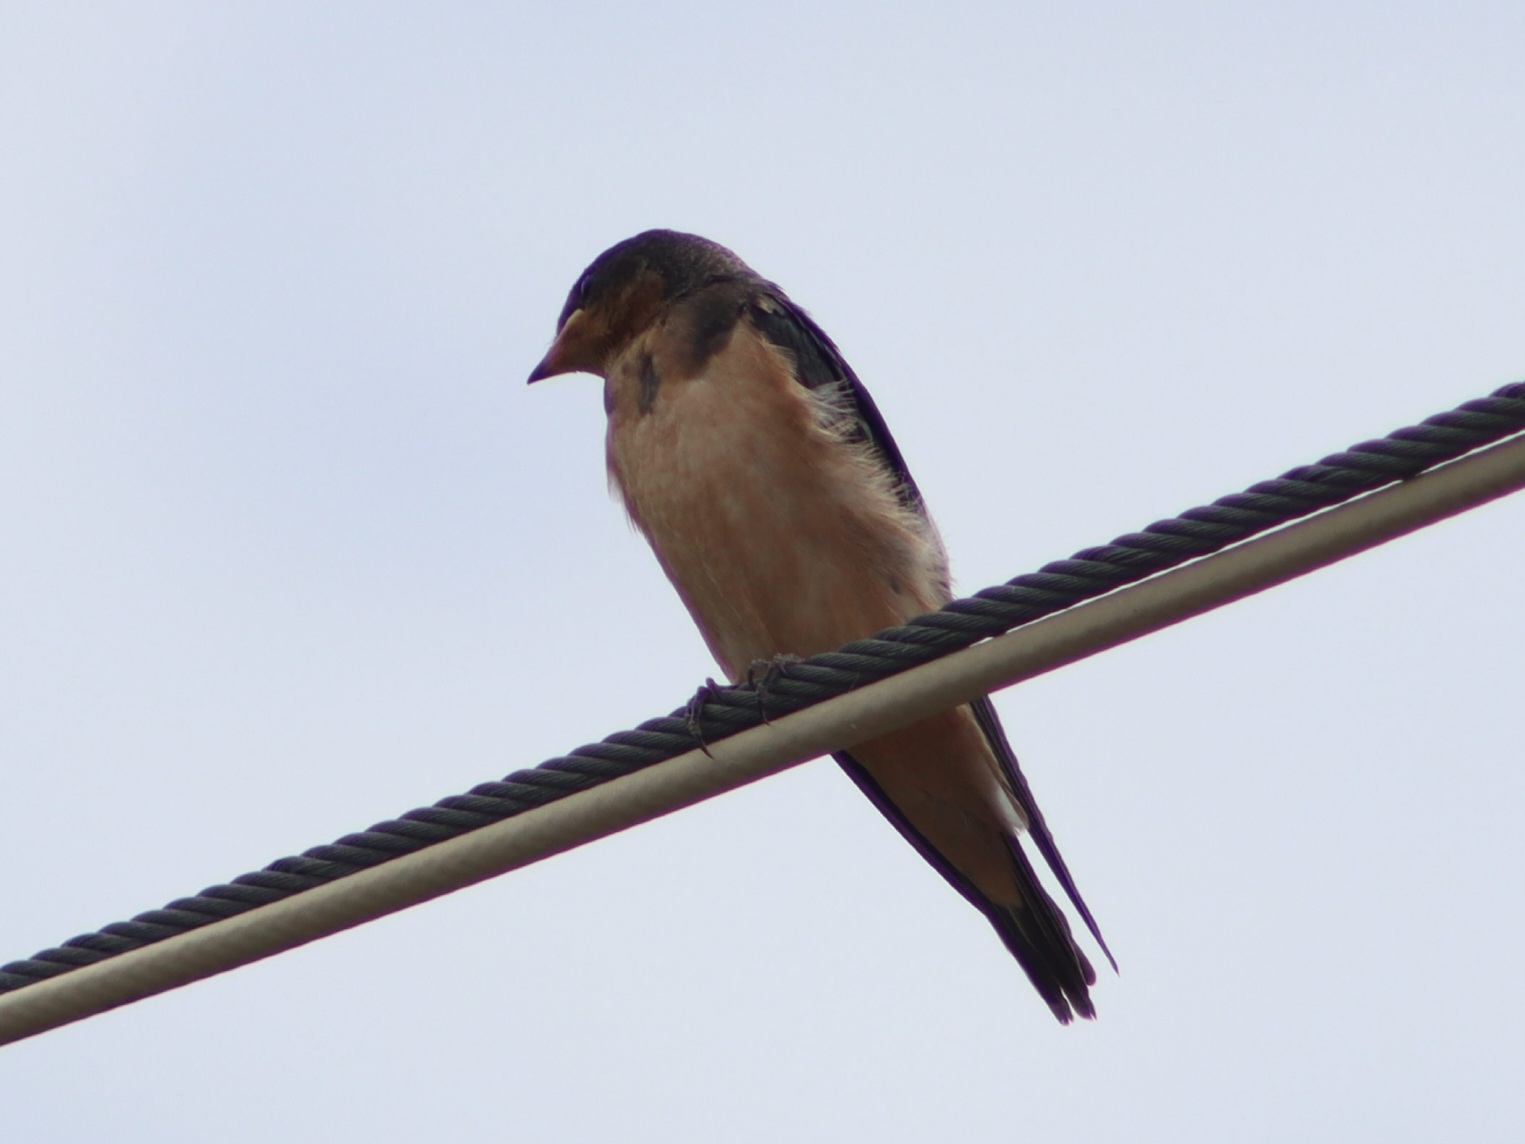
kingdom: Animalia
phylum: Chordata
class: Aves
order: Passeriformes
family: Hirundinidae
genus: Hirundo
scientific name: Hirundo rustica
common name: Barn swallow
